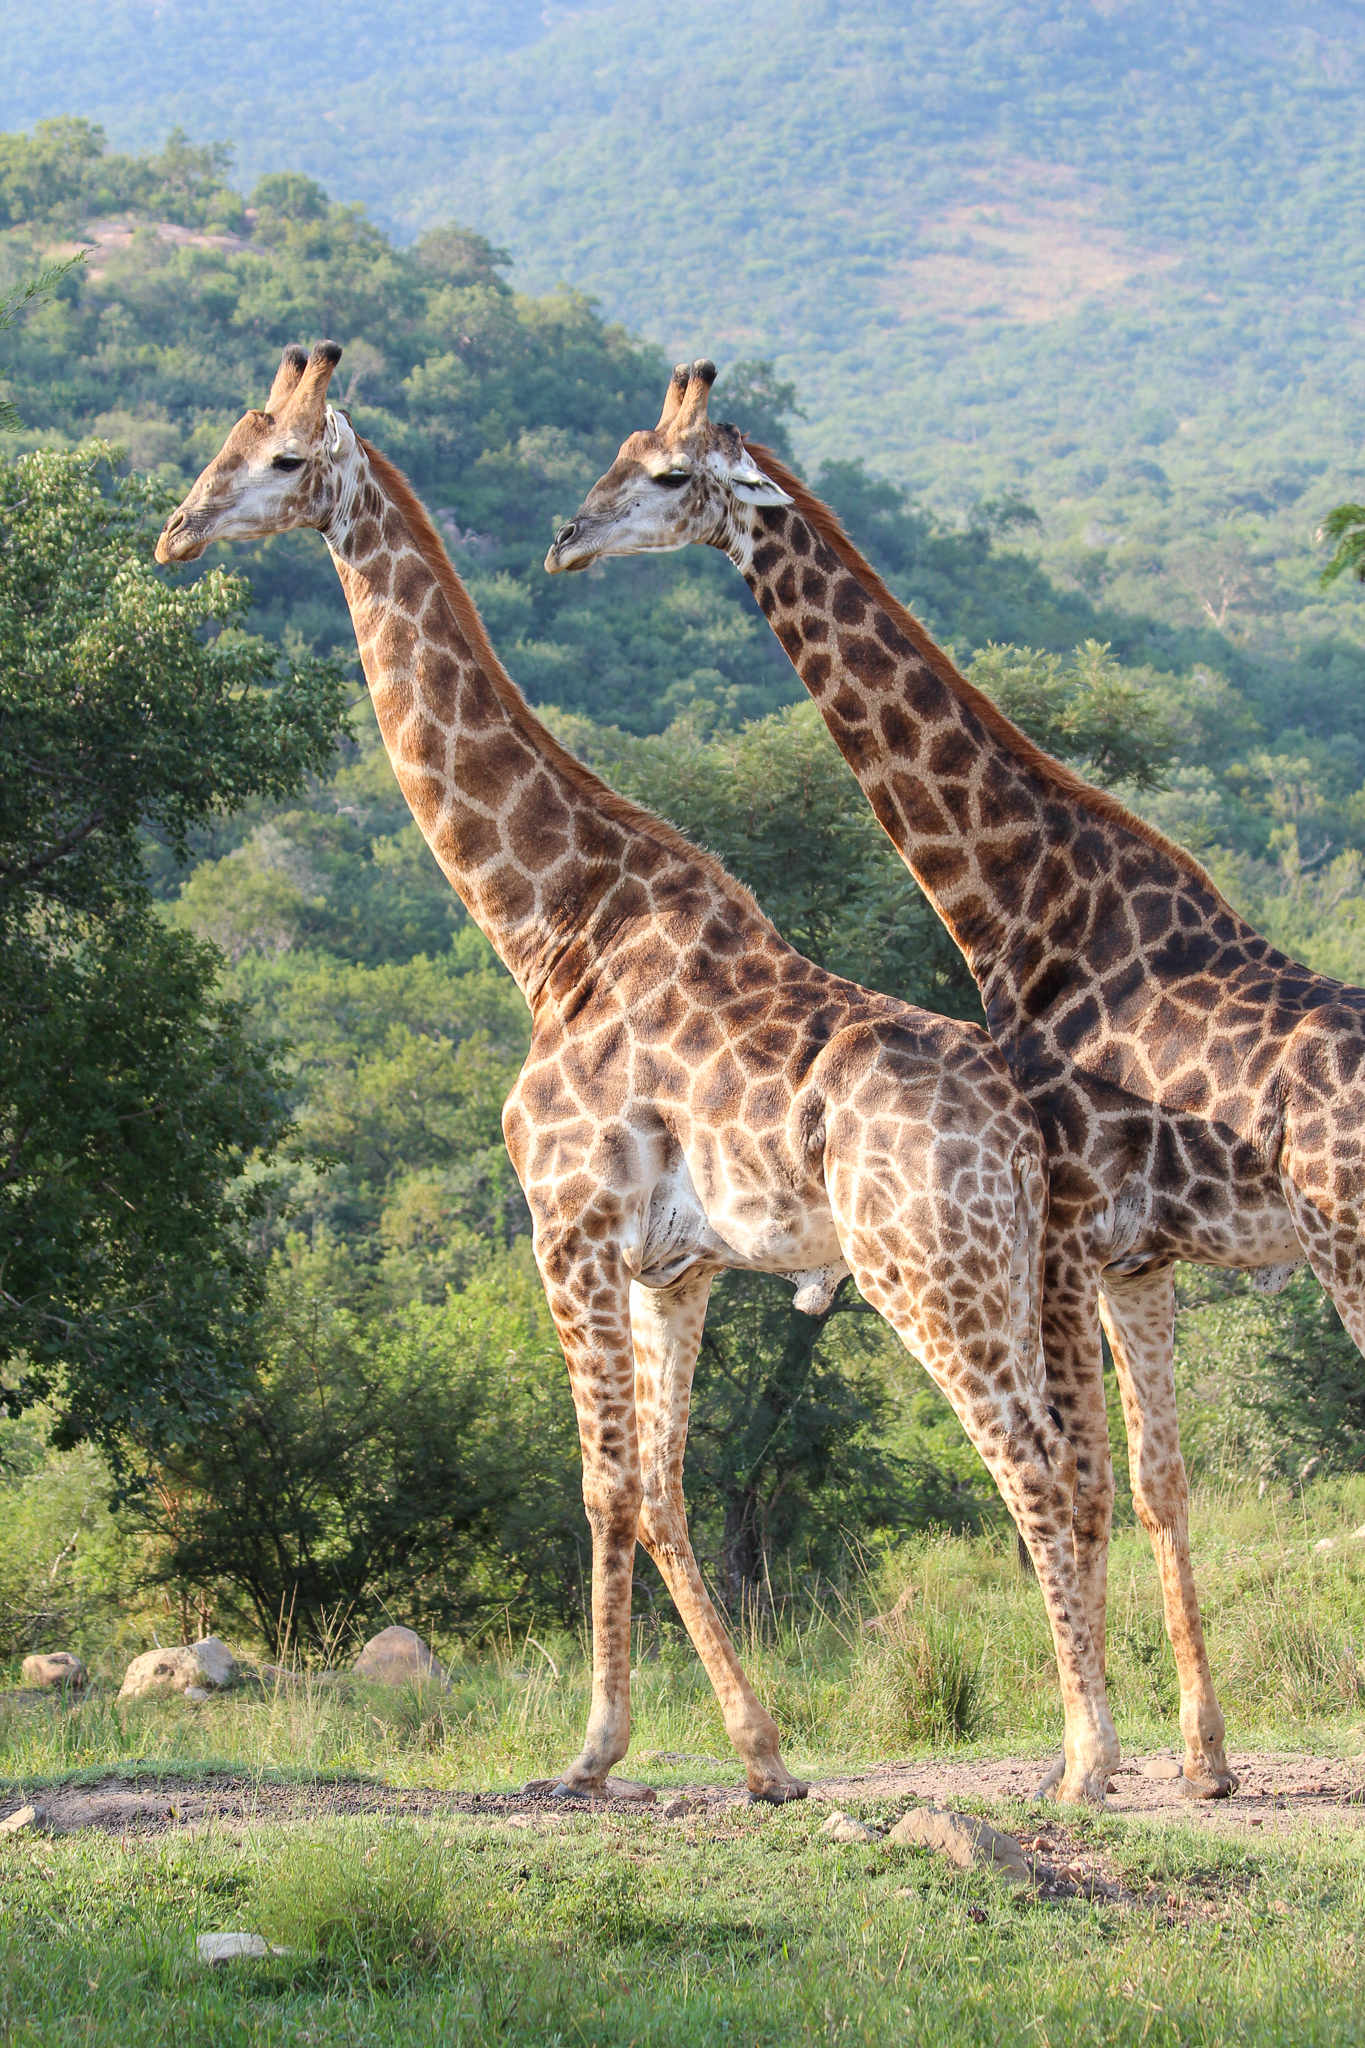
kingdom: Animalia
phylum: Chordata
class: Mammalia
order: Artiodactyla
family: Giraffidae
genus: Giraffa
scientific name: Giraffa giraffa
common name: Southern giraffe
